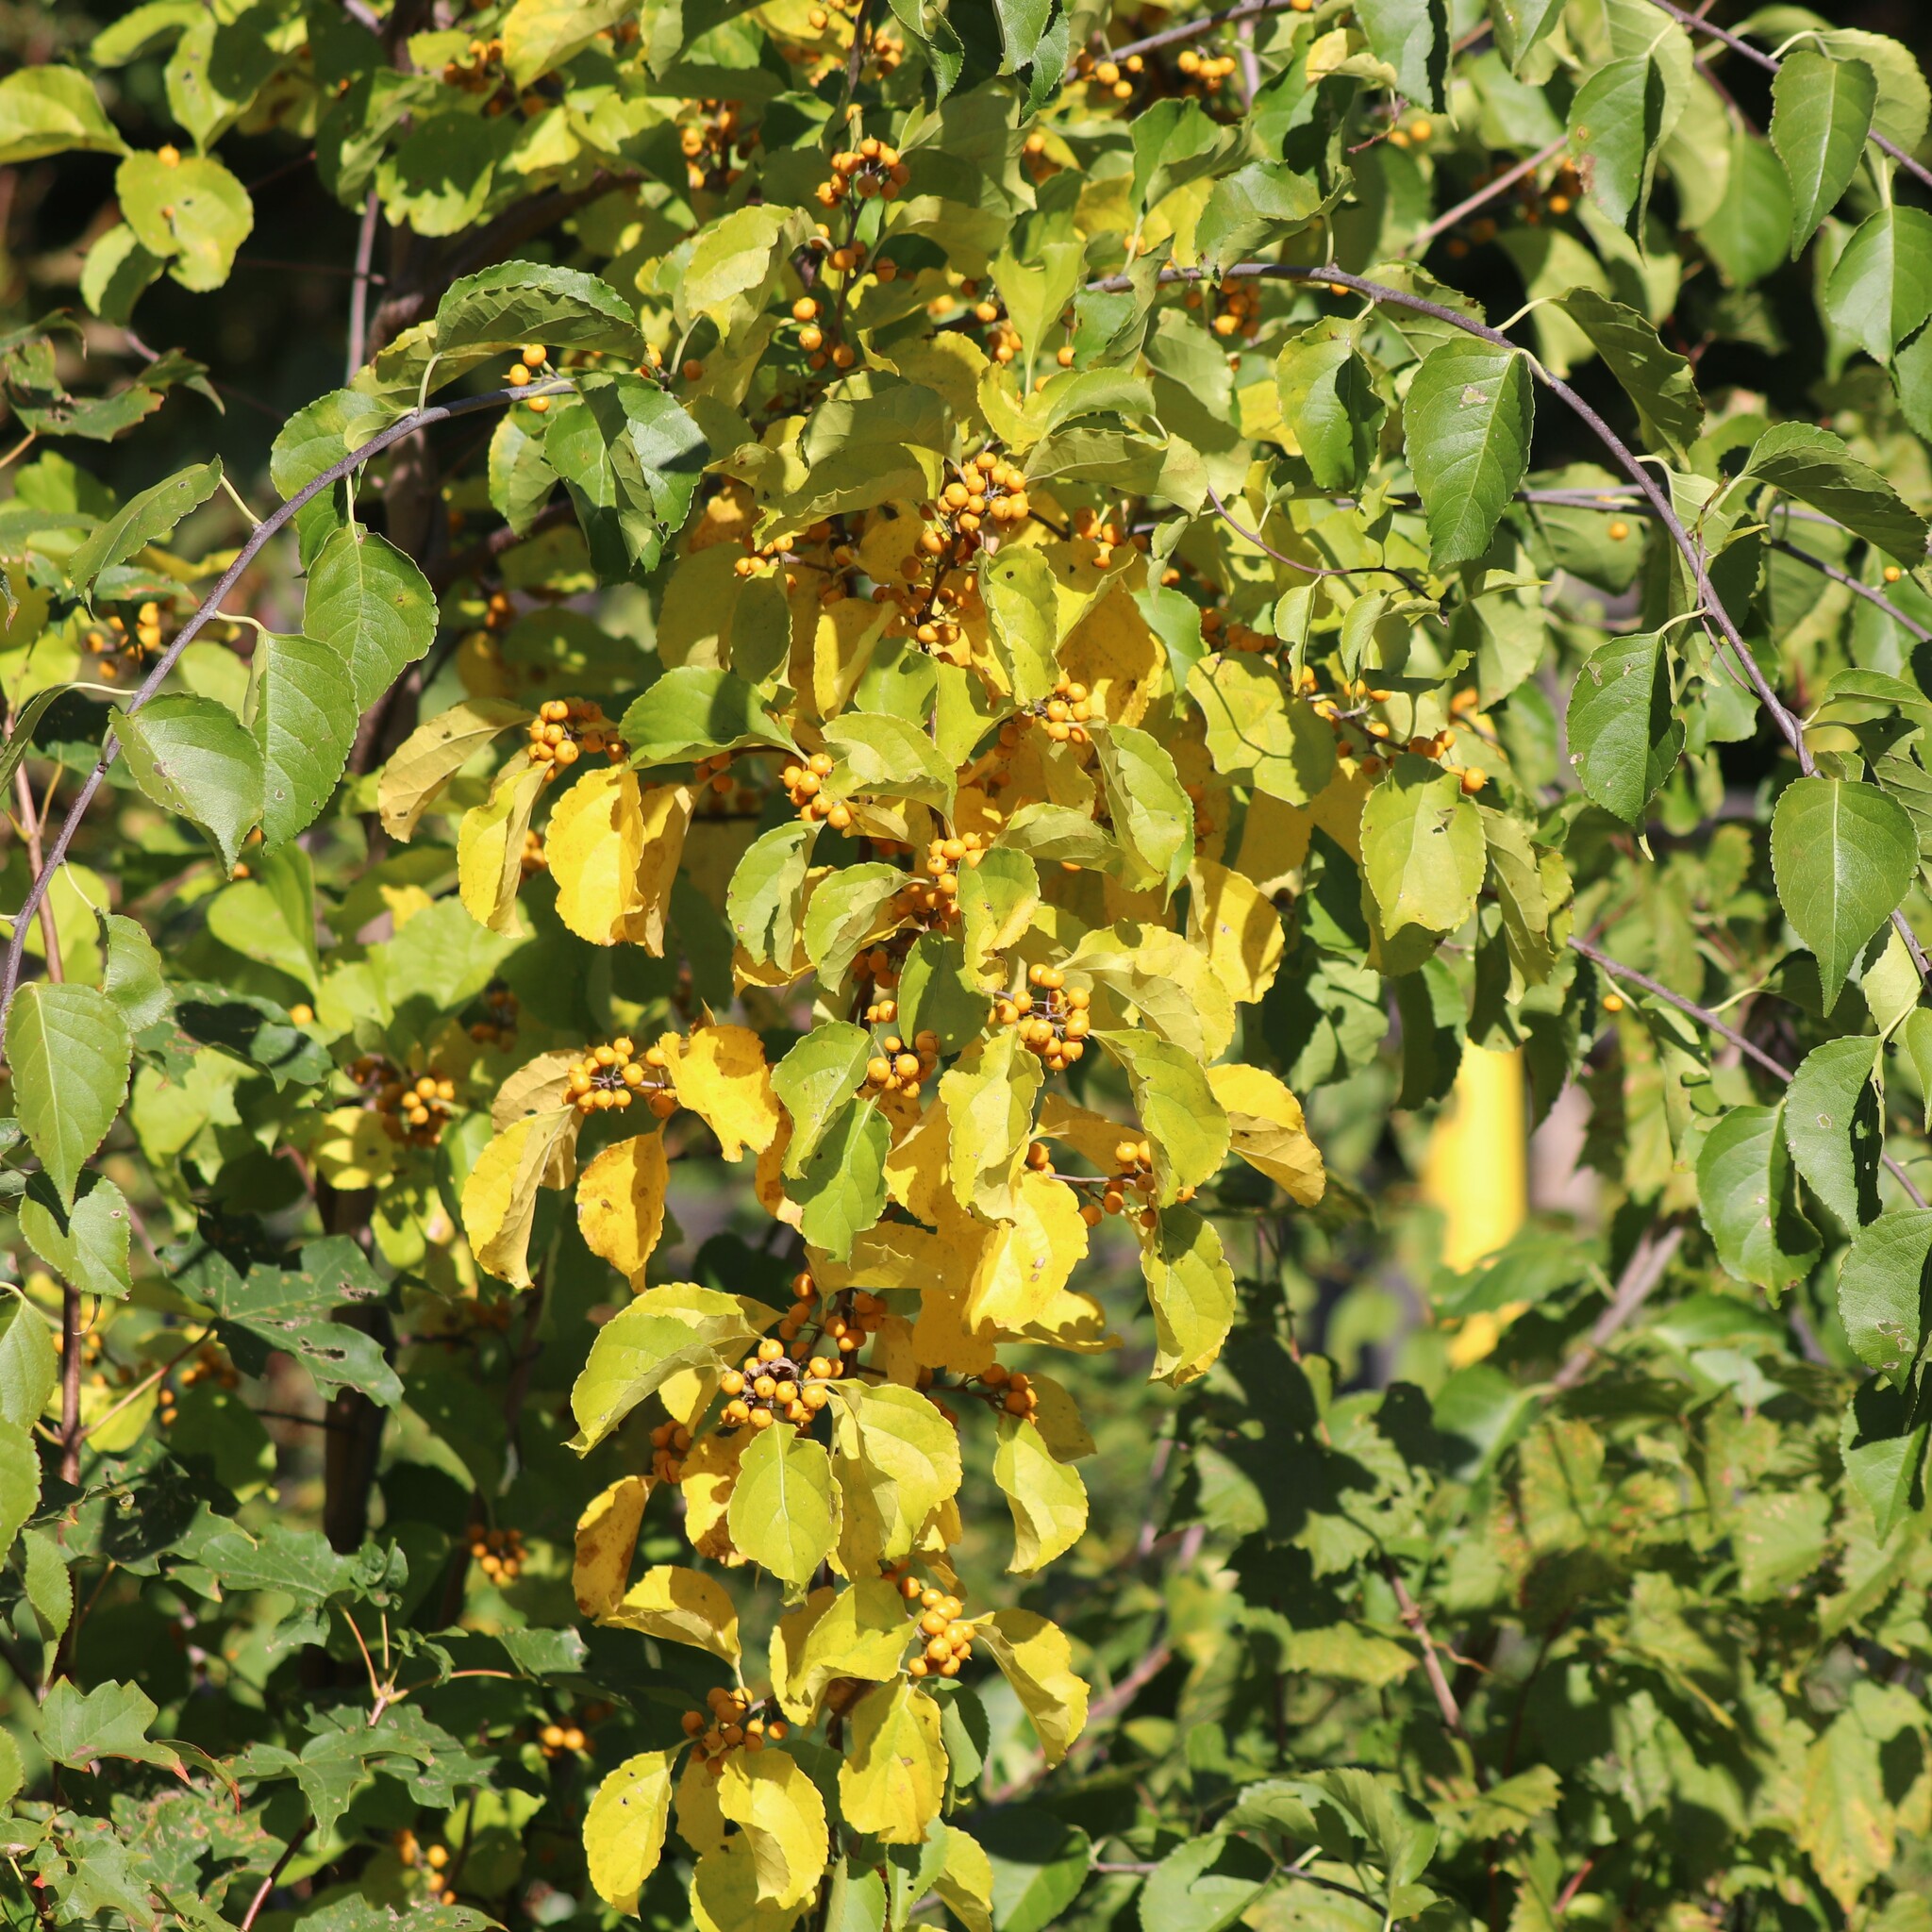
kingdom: Plantae
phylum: Tracheophyta
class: Magnoliopsida
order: Celastrales
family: Celastraceae
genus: Celastrus
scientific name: Celastrus orbiculatus
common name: Oriental bittersweet
